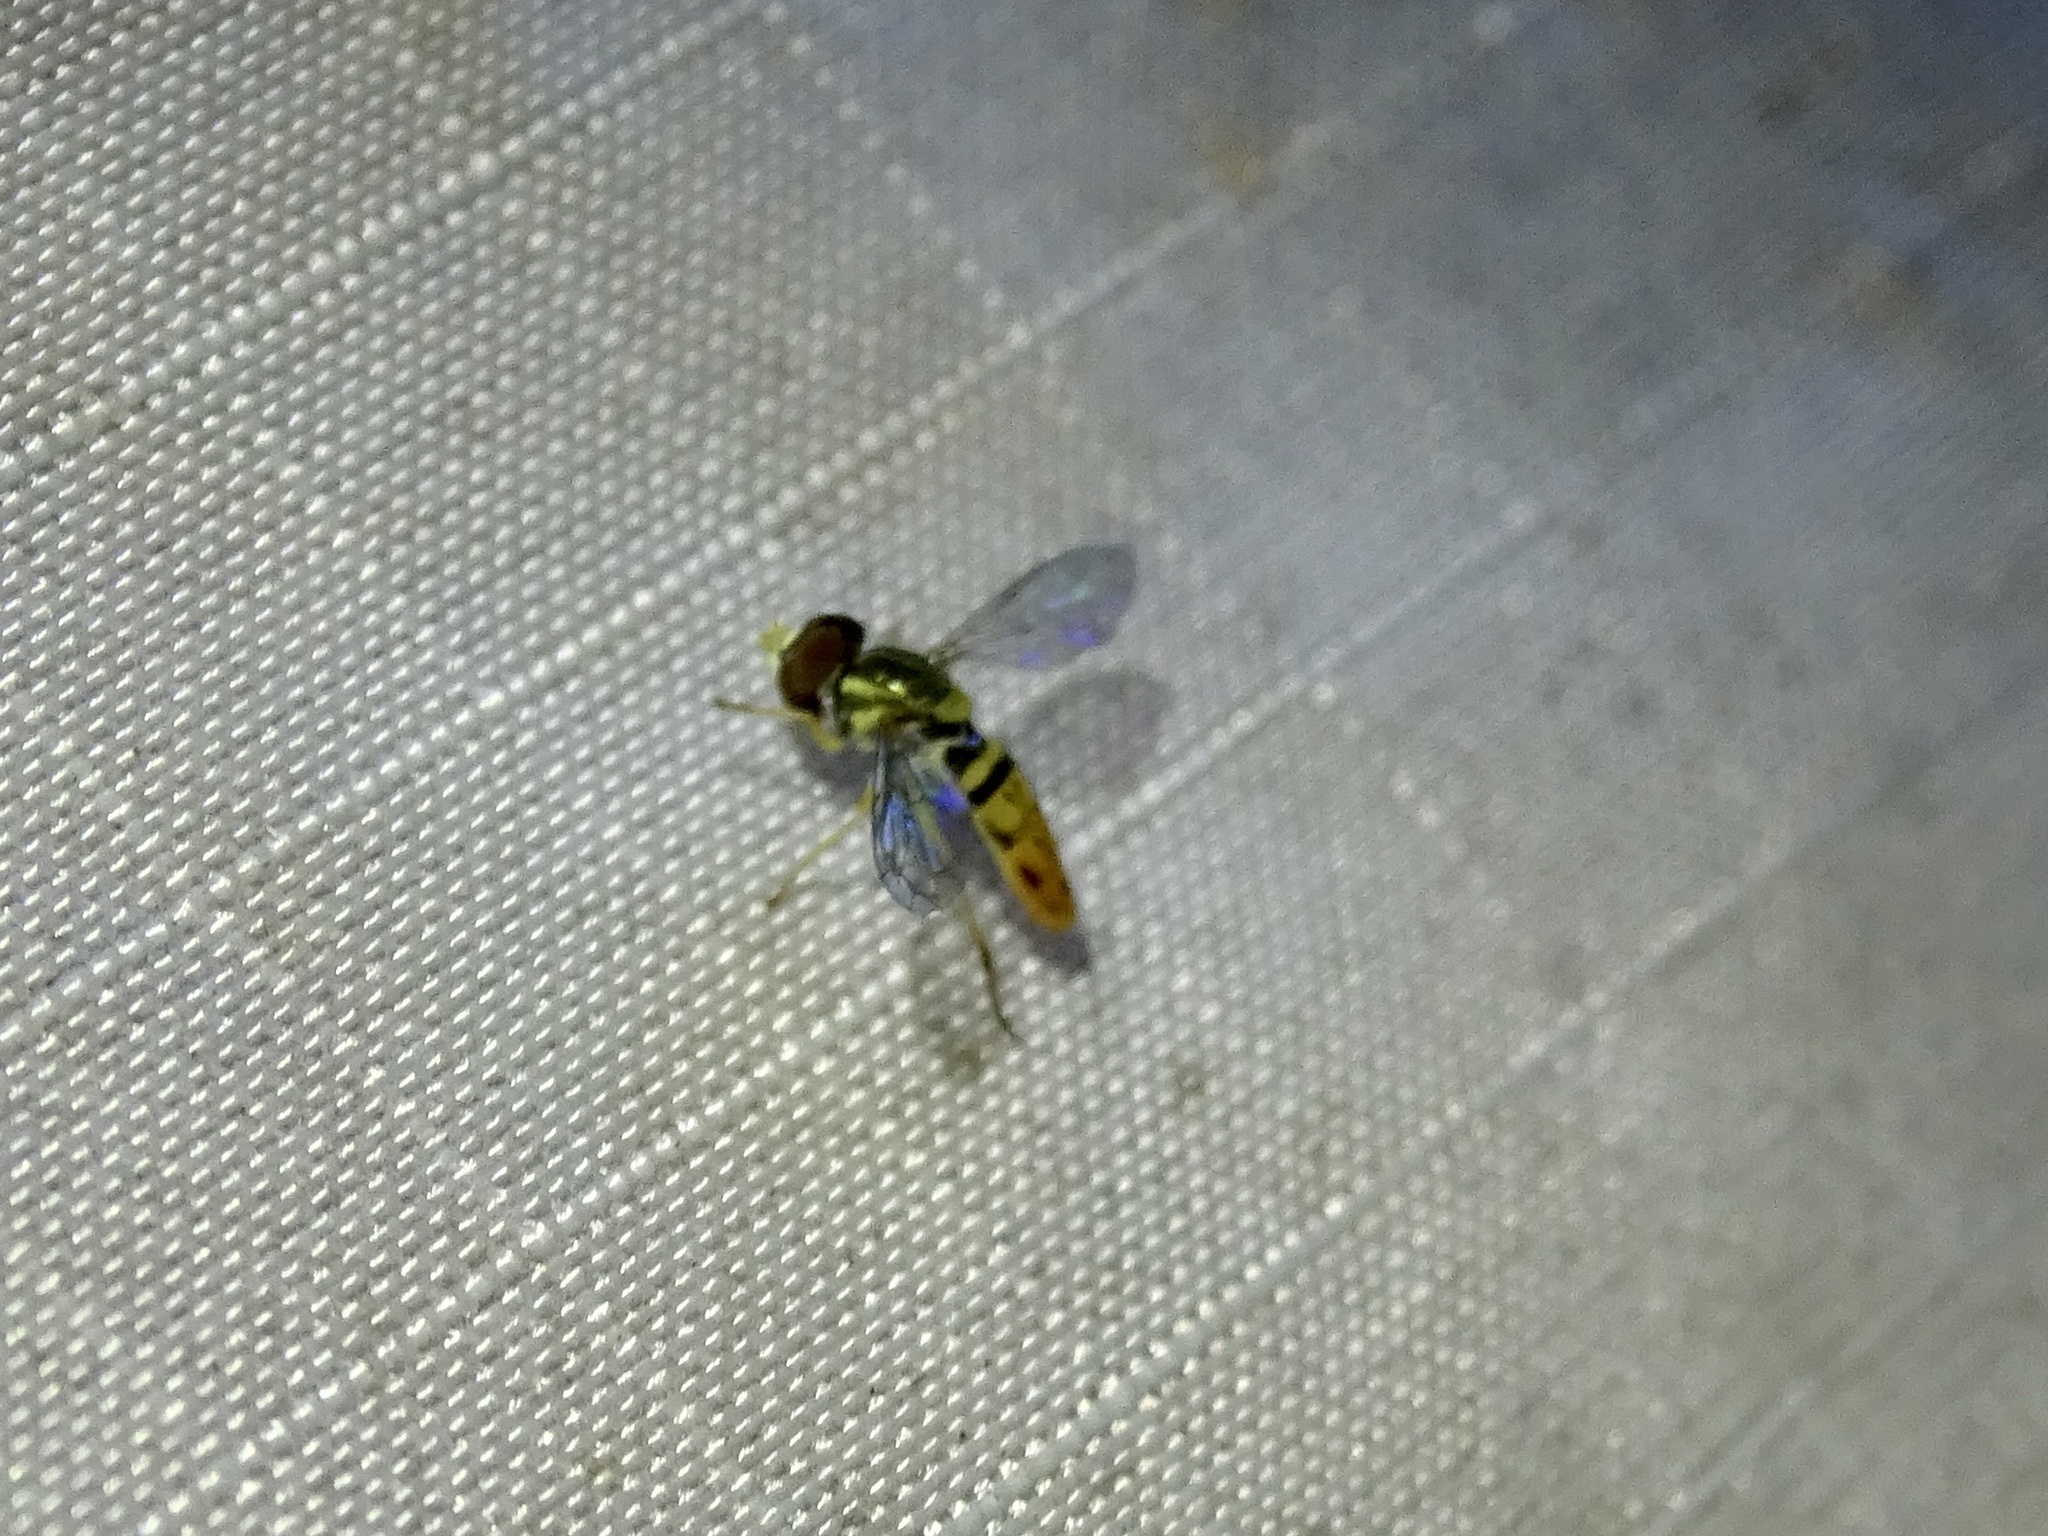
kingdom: Animalia
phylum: Arthropoda
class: Insecta
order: Diptera
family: Syrphidae
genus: Toxomerus
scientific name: Toxomerus marginatus
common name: Syrphid fly
